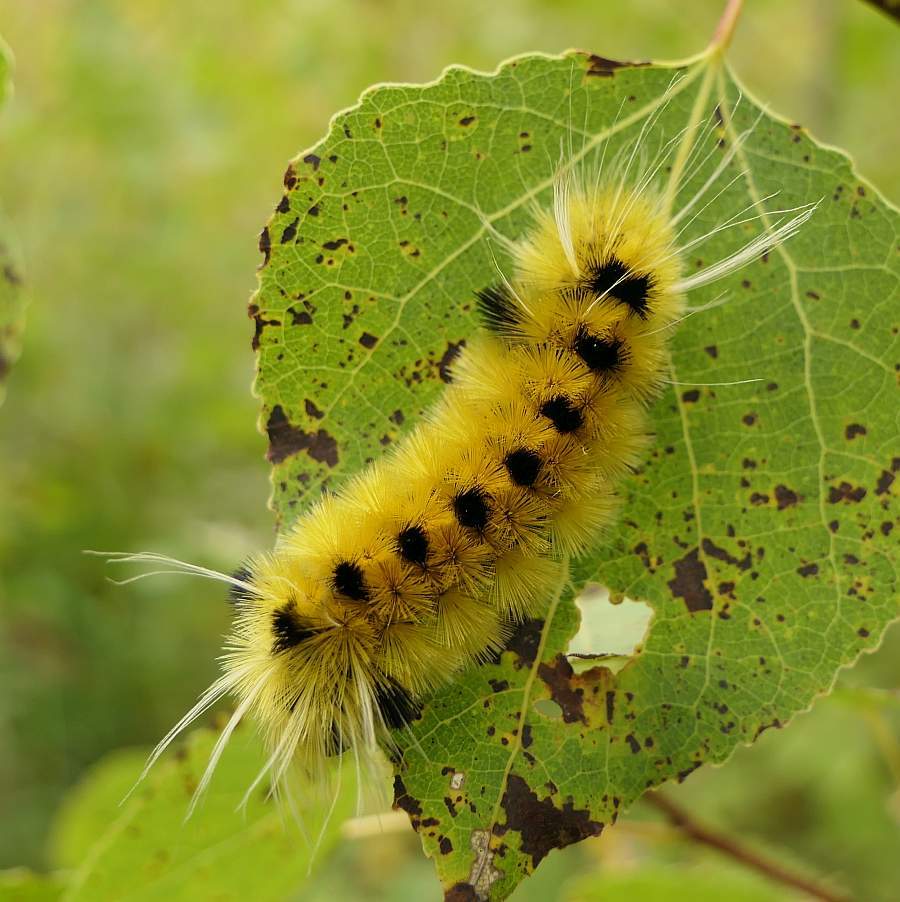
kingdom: Animalia
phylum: Arthropoda
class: Insecta
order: Lepidoptera
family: Erebidae
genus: Lophocampa
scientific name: Lophocampa maculata
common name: Spotted tussock moth
